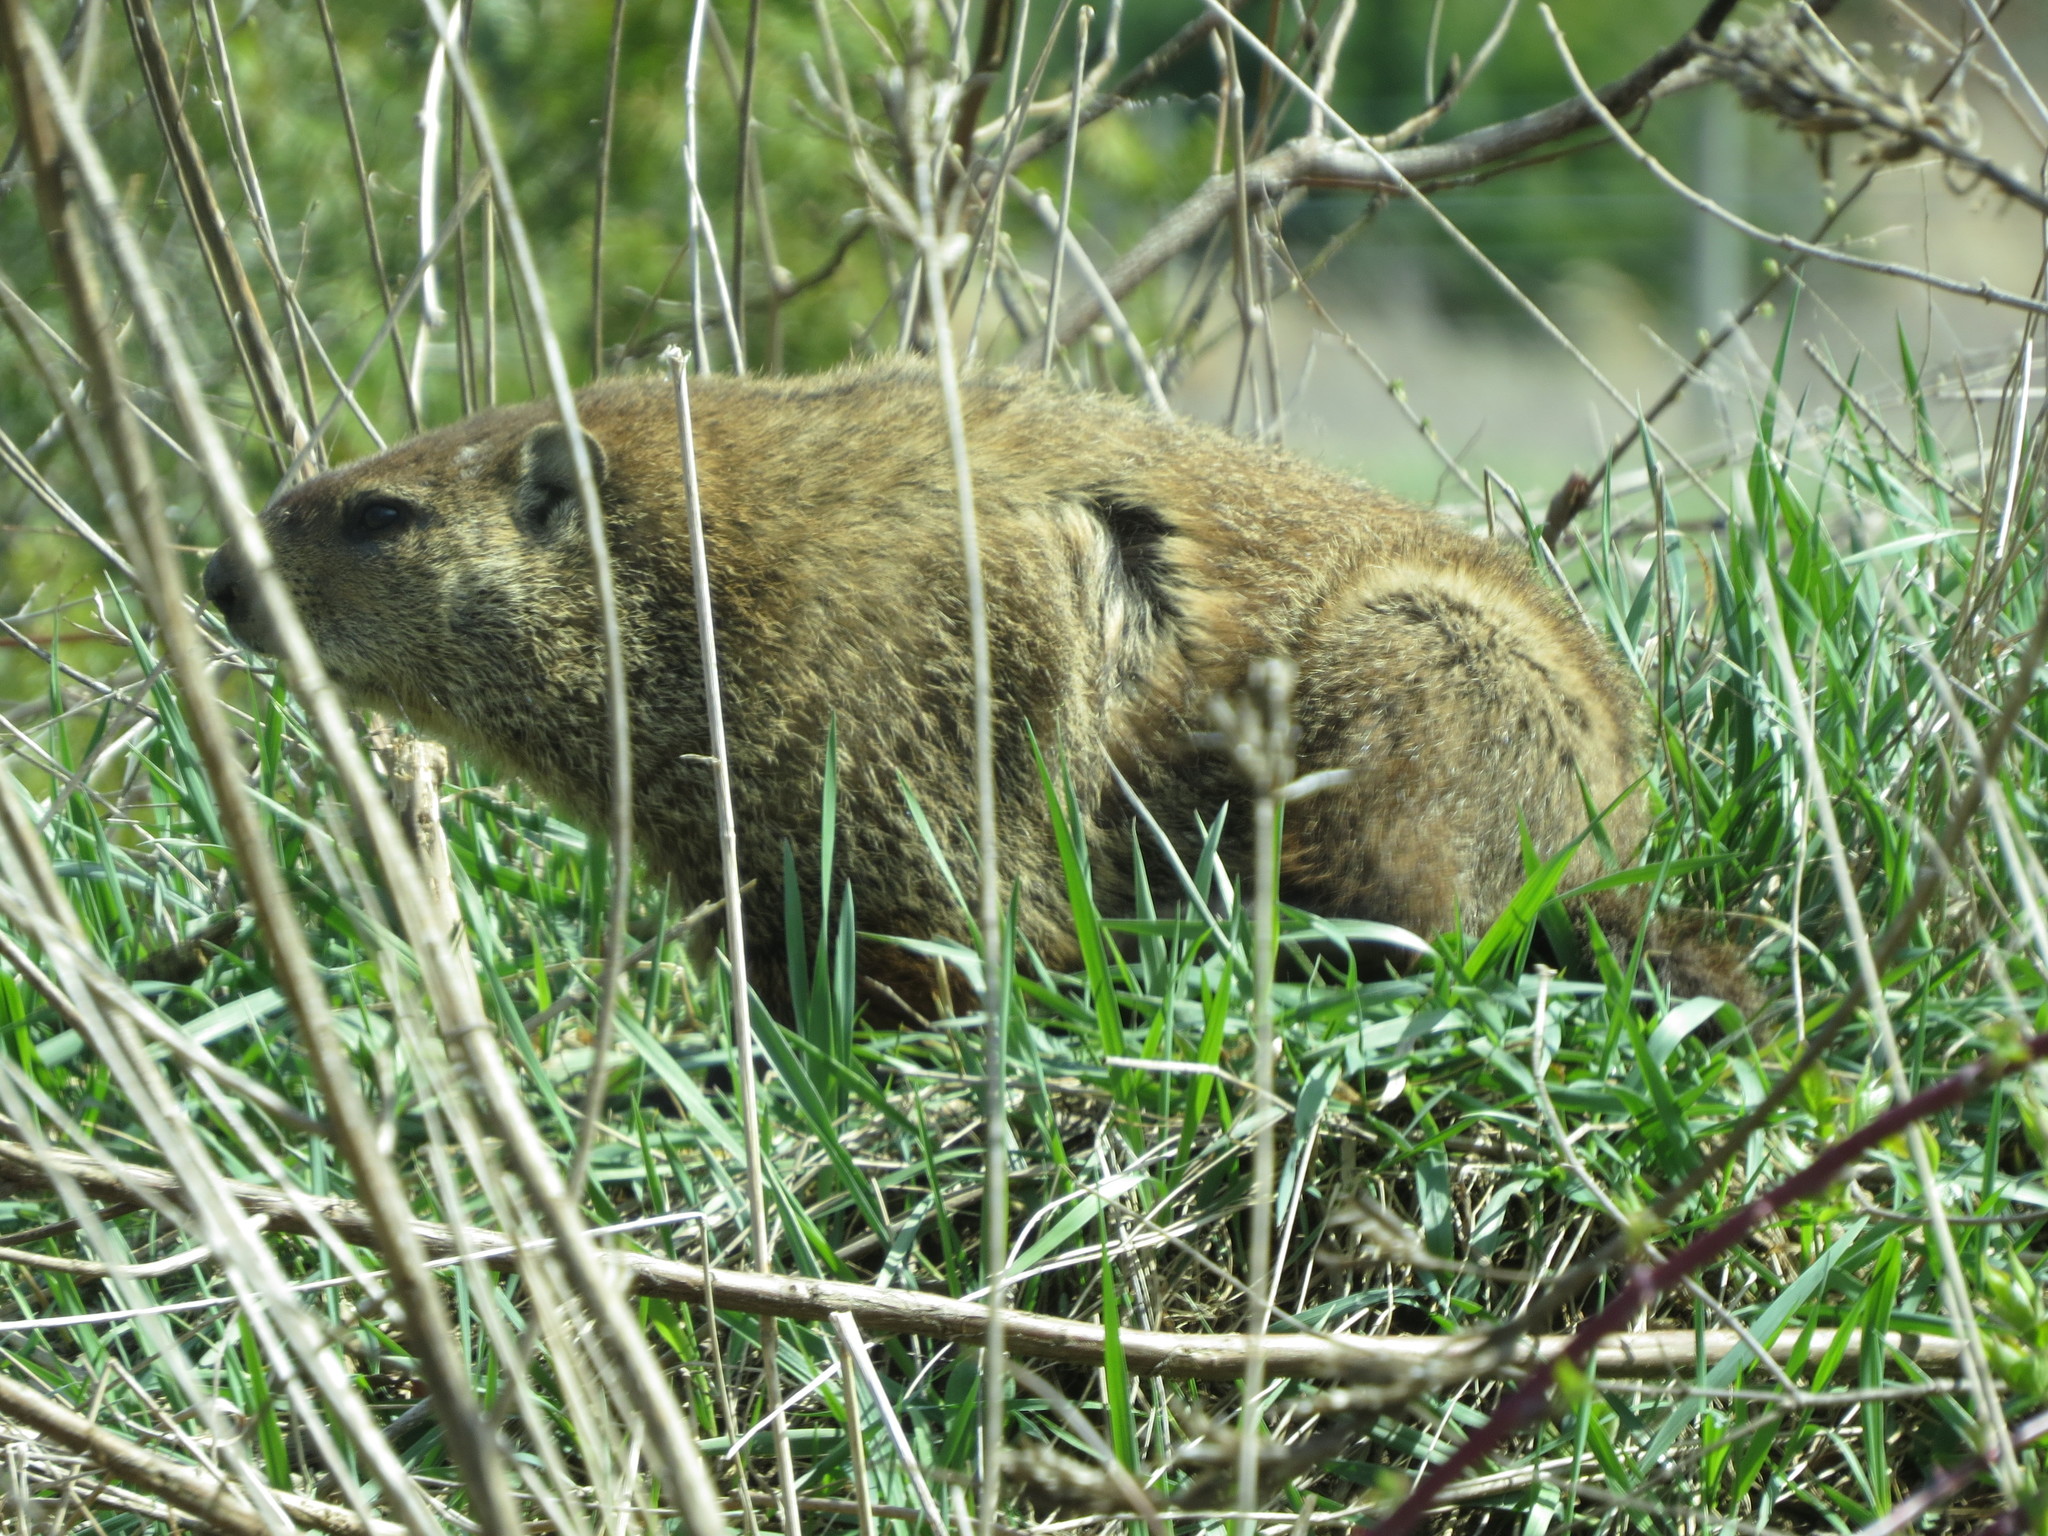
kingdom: Animalia
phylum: Chordata
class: Mammalia
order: Rodentia
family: Sciuridae
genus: Marmota
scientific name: Marmota monax
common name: Groundhog
